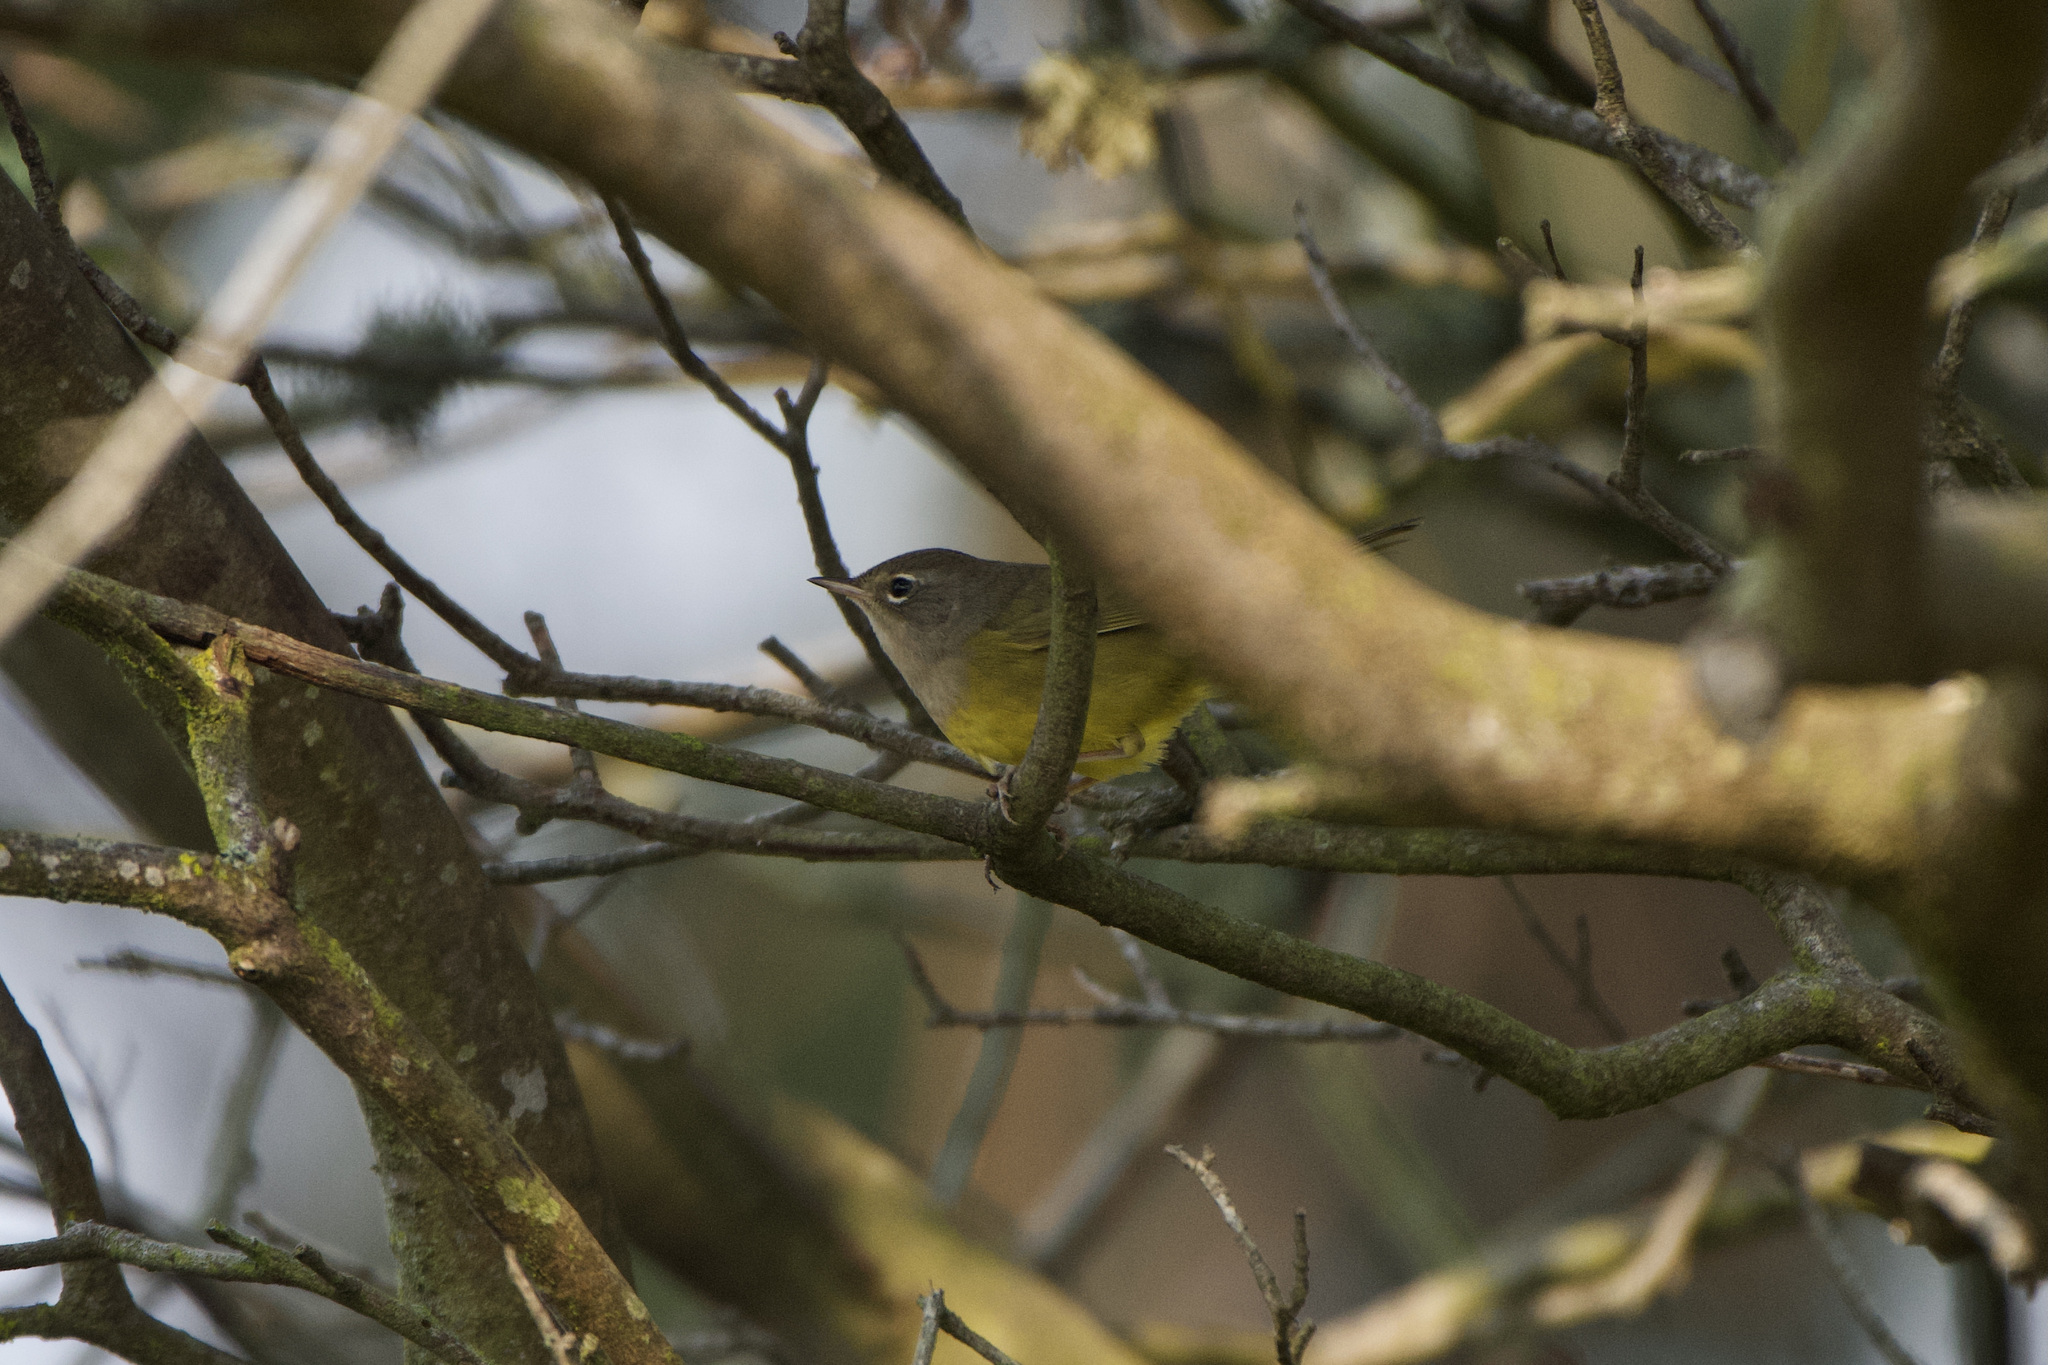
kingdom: Animalia
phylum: Chordata
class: Aves
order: Passeriformes
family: Parulidae
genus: Geothlypis
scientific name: Geothlypis tolmiei
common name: Macgillivray's warbler
